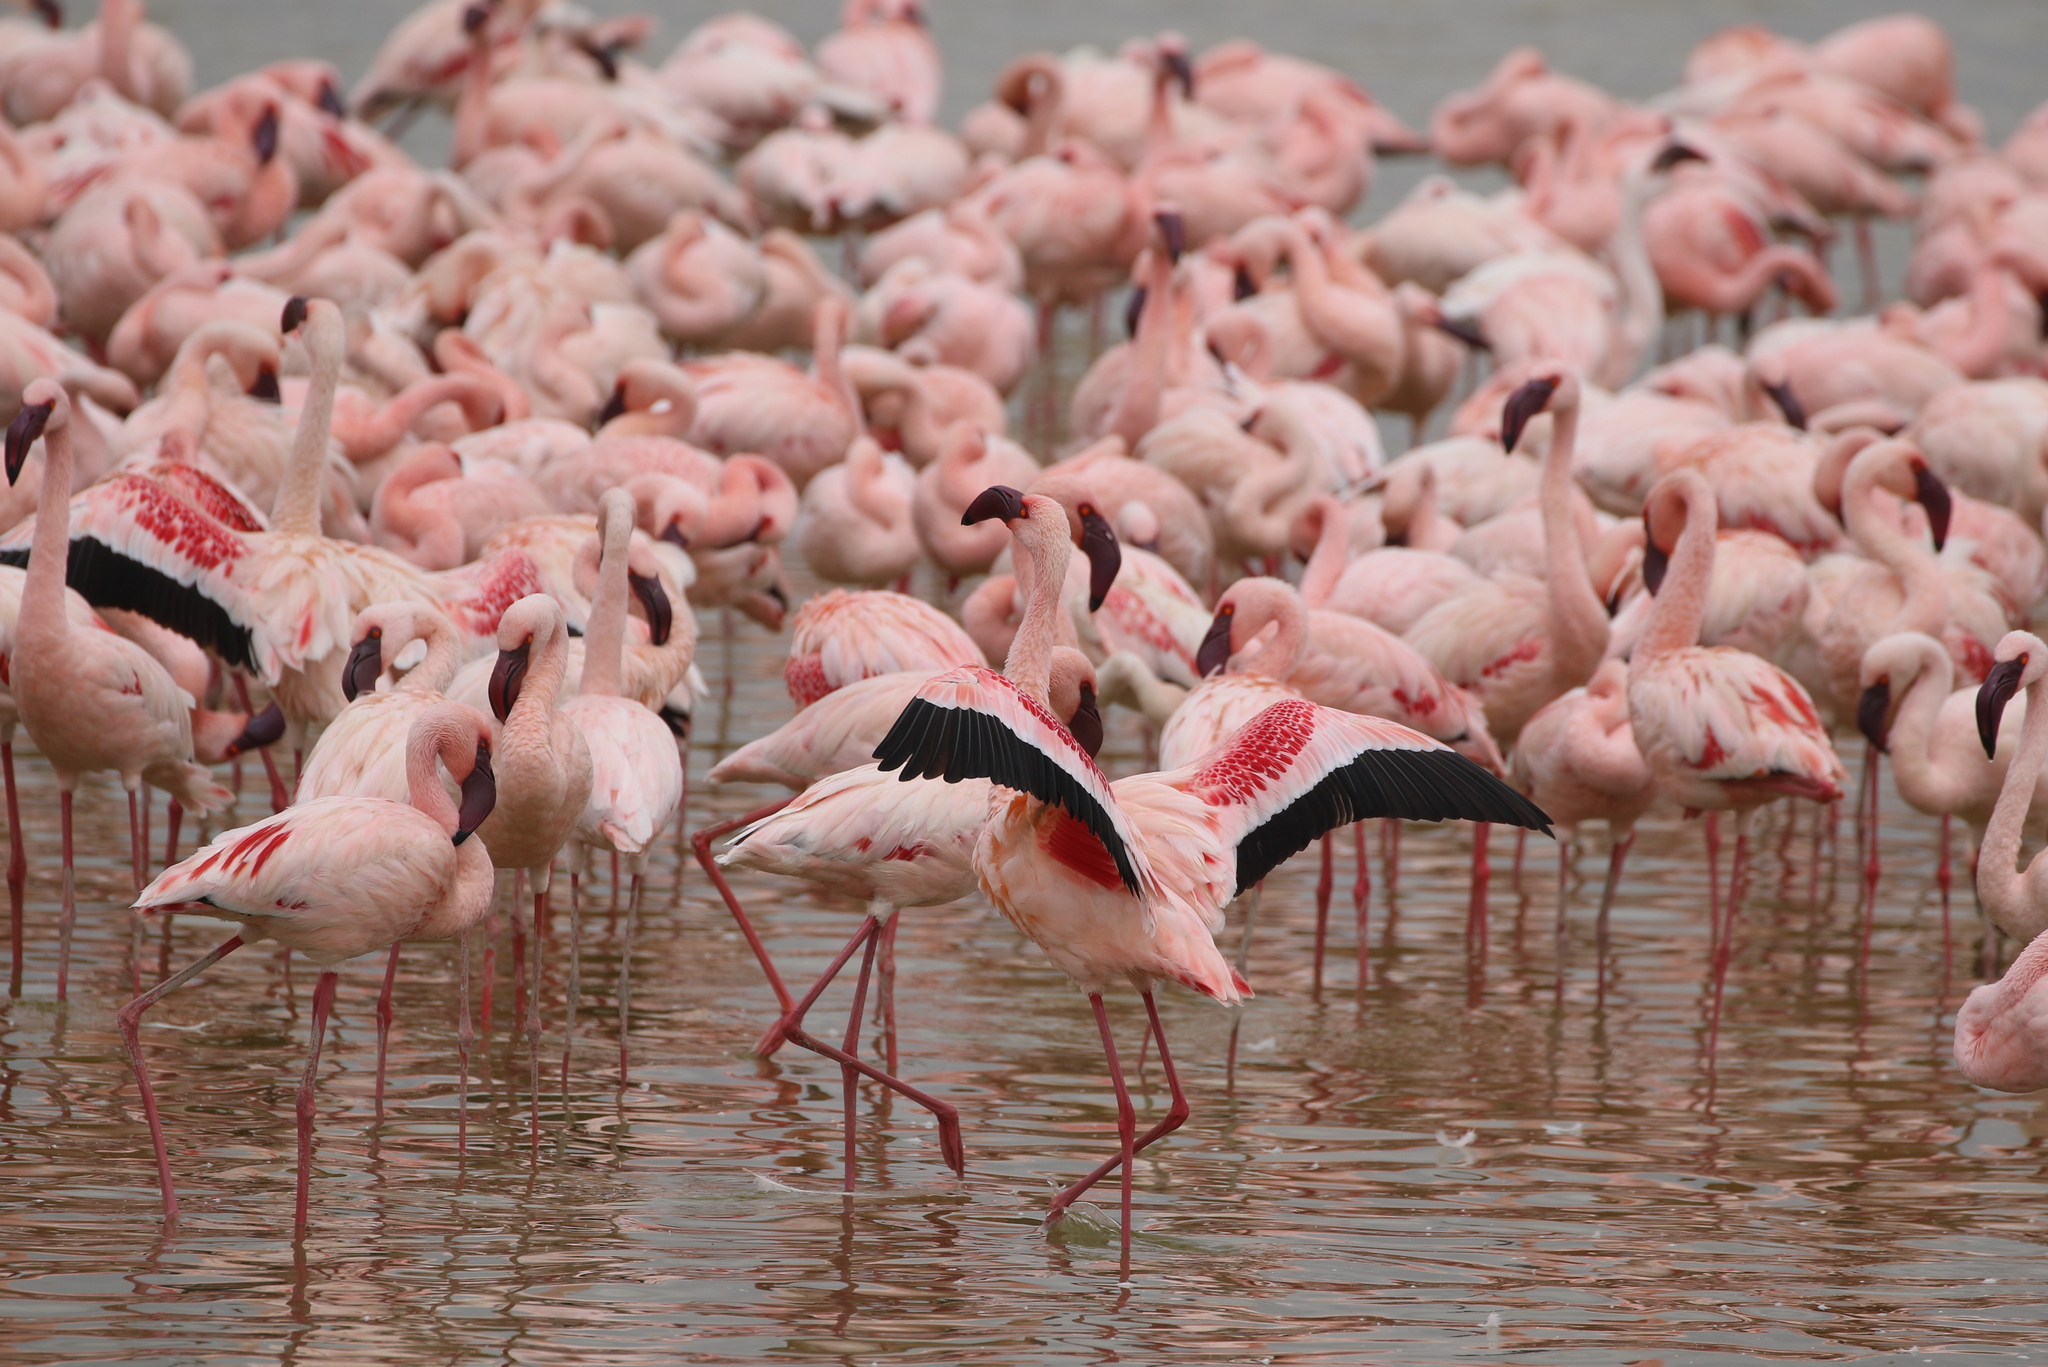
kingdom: Animalia
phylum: Chordata
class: Aves
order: Phoenicopteriformes
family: Phoenicopteridae
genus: Phoeniconaias
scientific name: Phoeniconaias minor
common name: Lesser flamingo
